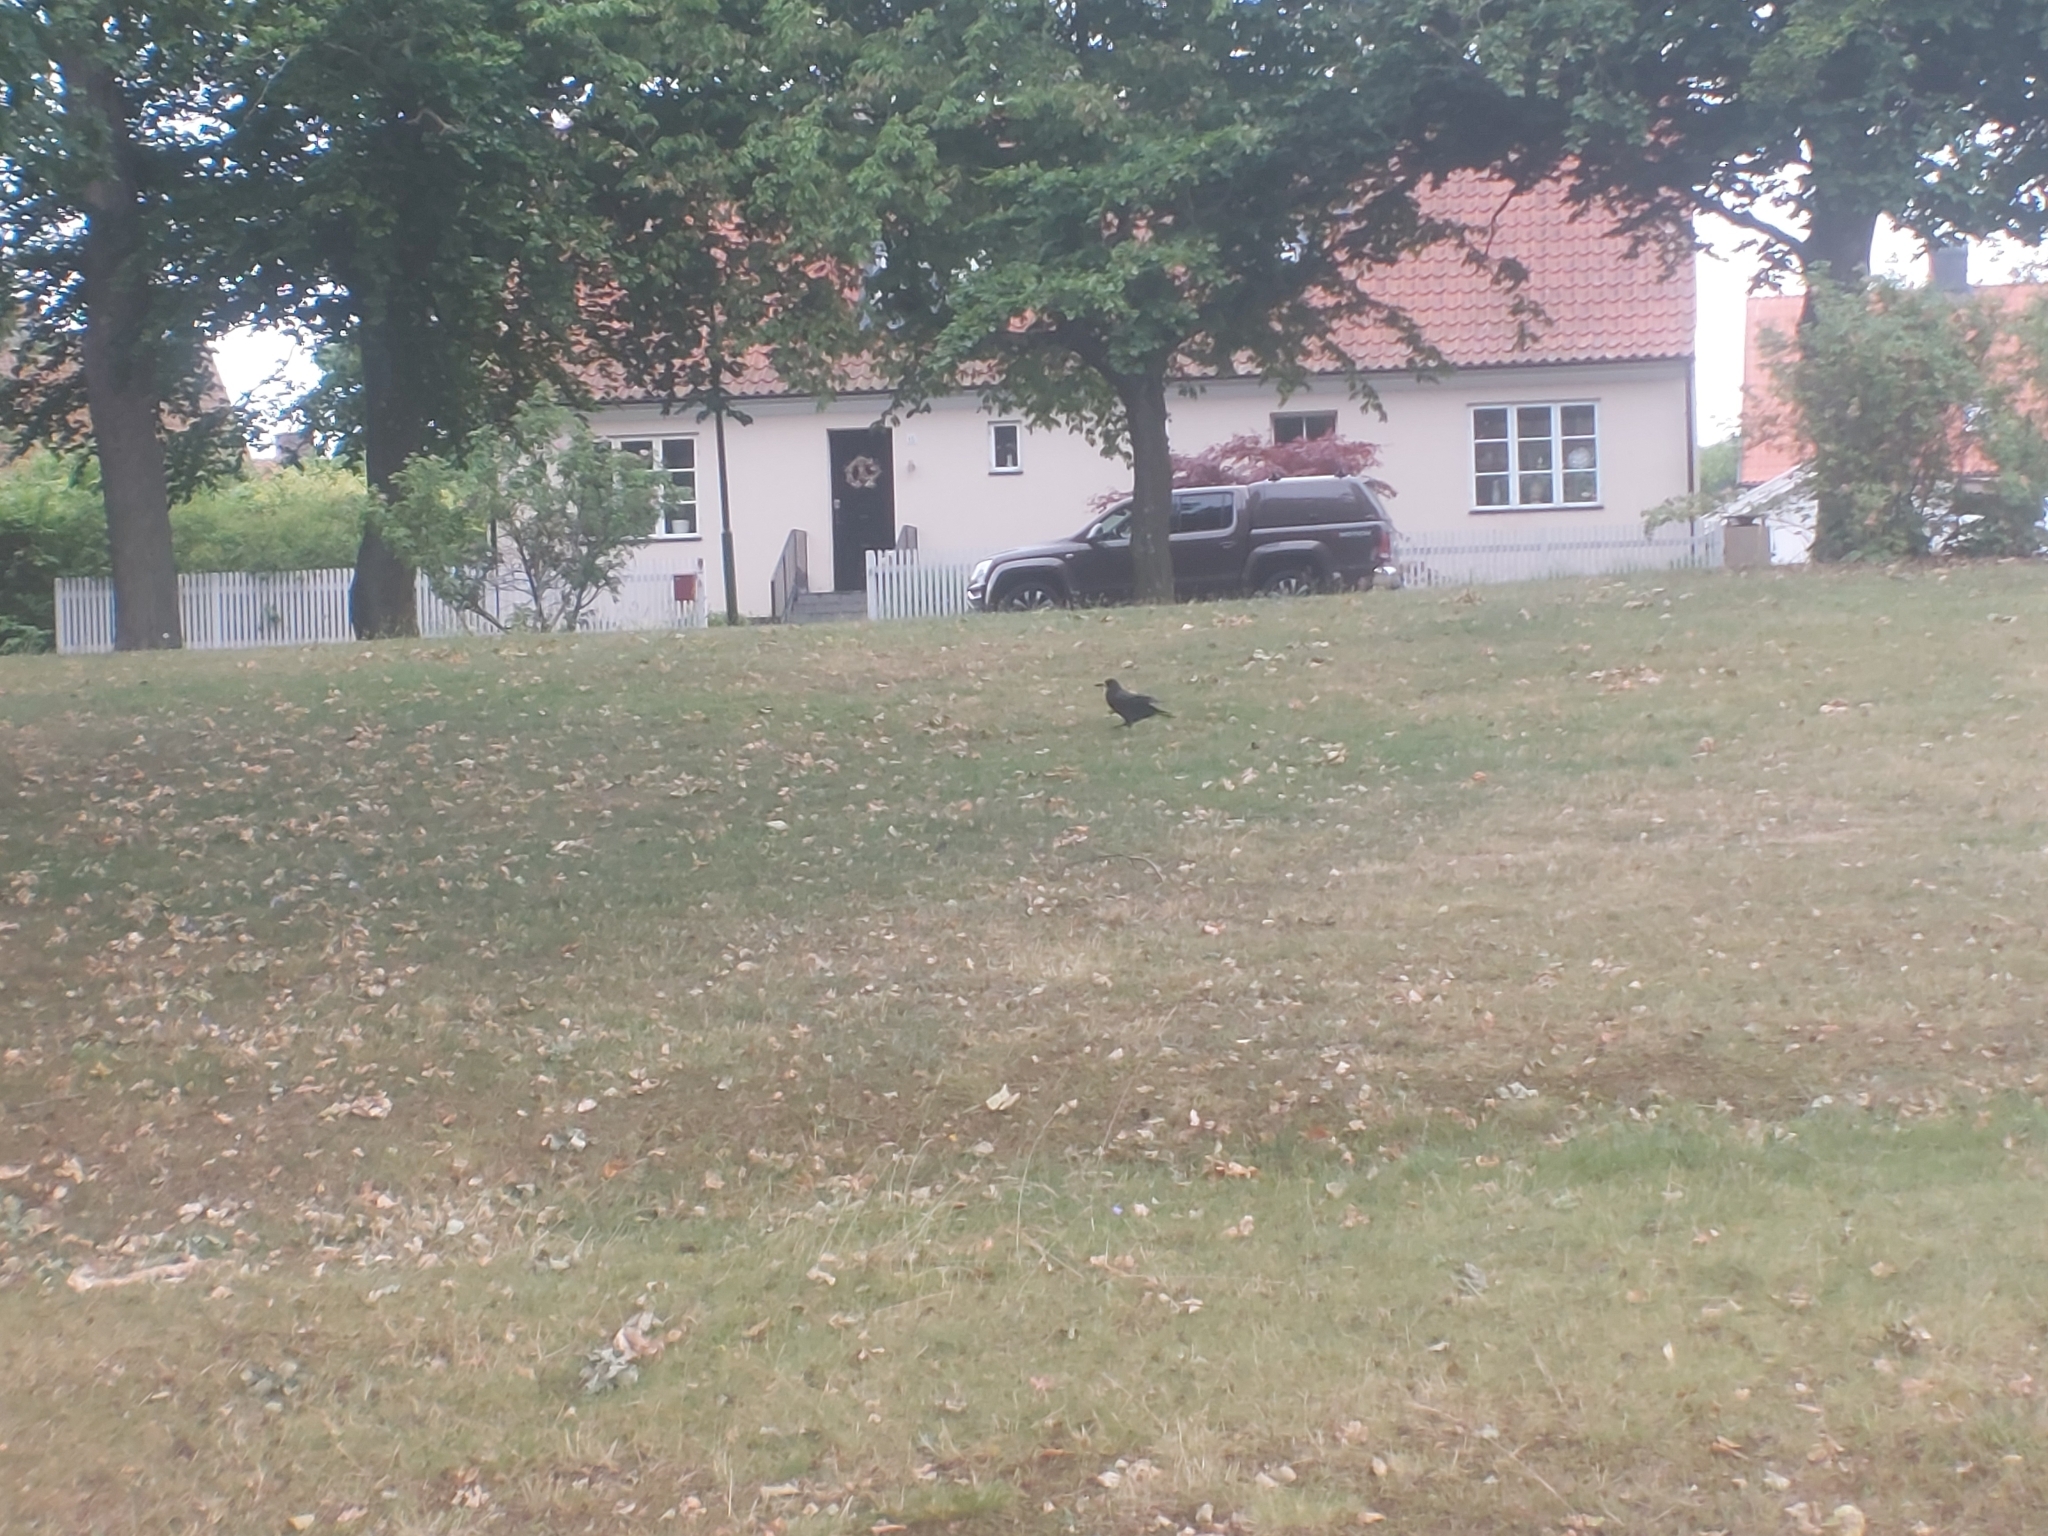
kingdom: Animalia
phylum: Chordata
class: Aves
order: Passeriformes
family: Corvidae
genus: Corvus
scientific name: Corvus frugilegus
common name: Rook
